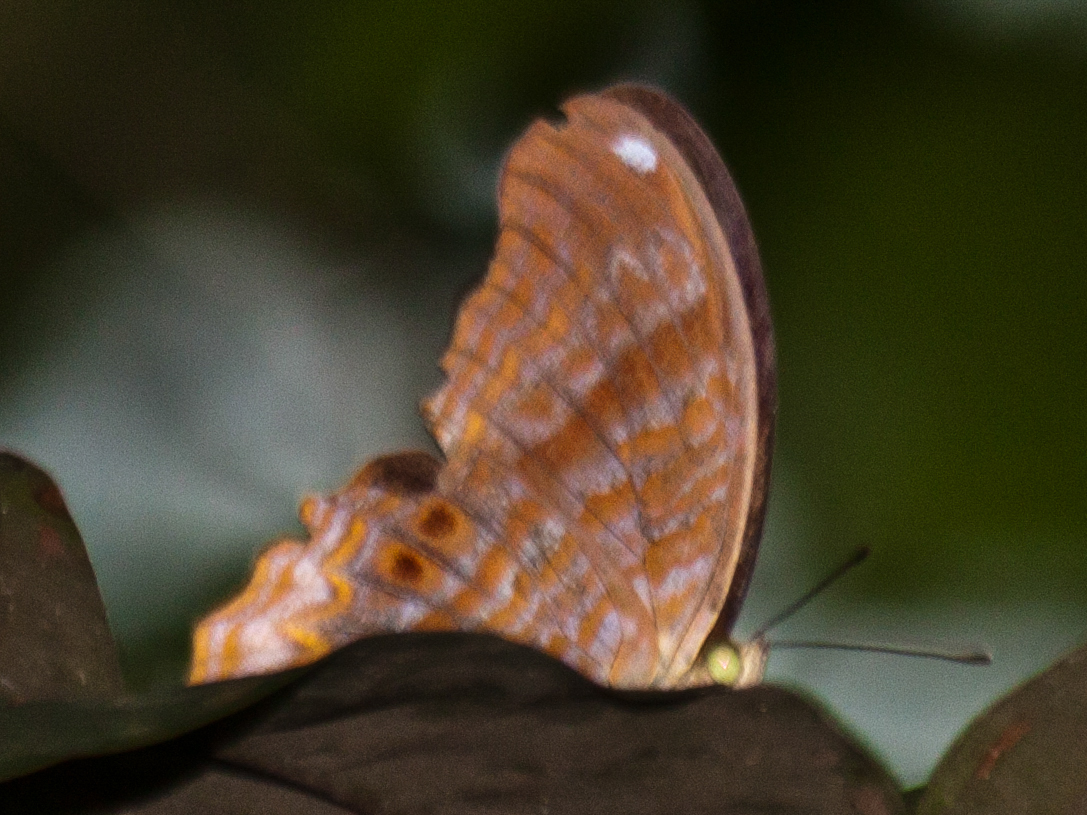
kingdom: Animalia
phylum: Arthropoda
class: Insecta
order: Lepidoptera
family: Nymphalidae
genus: Terinos
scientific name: Terinos terpander
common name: Royal assyrian
